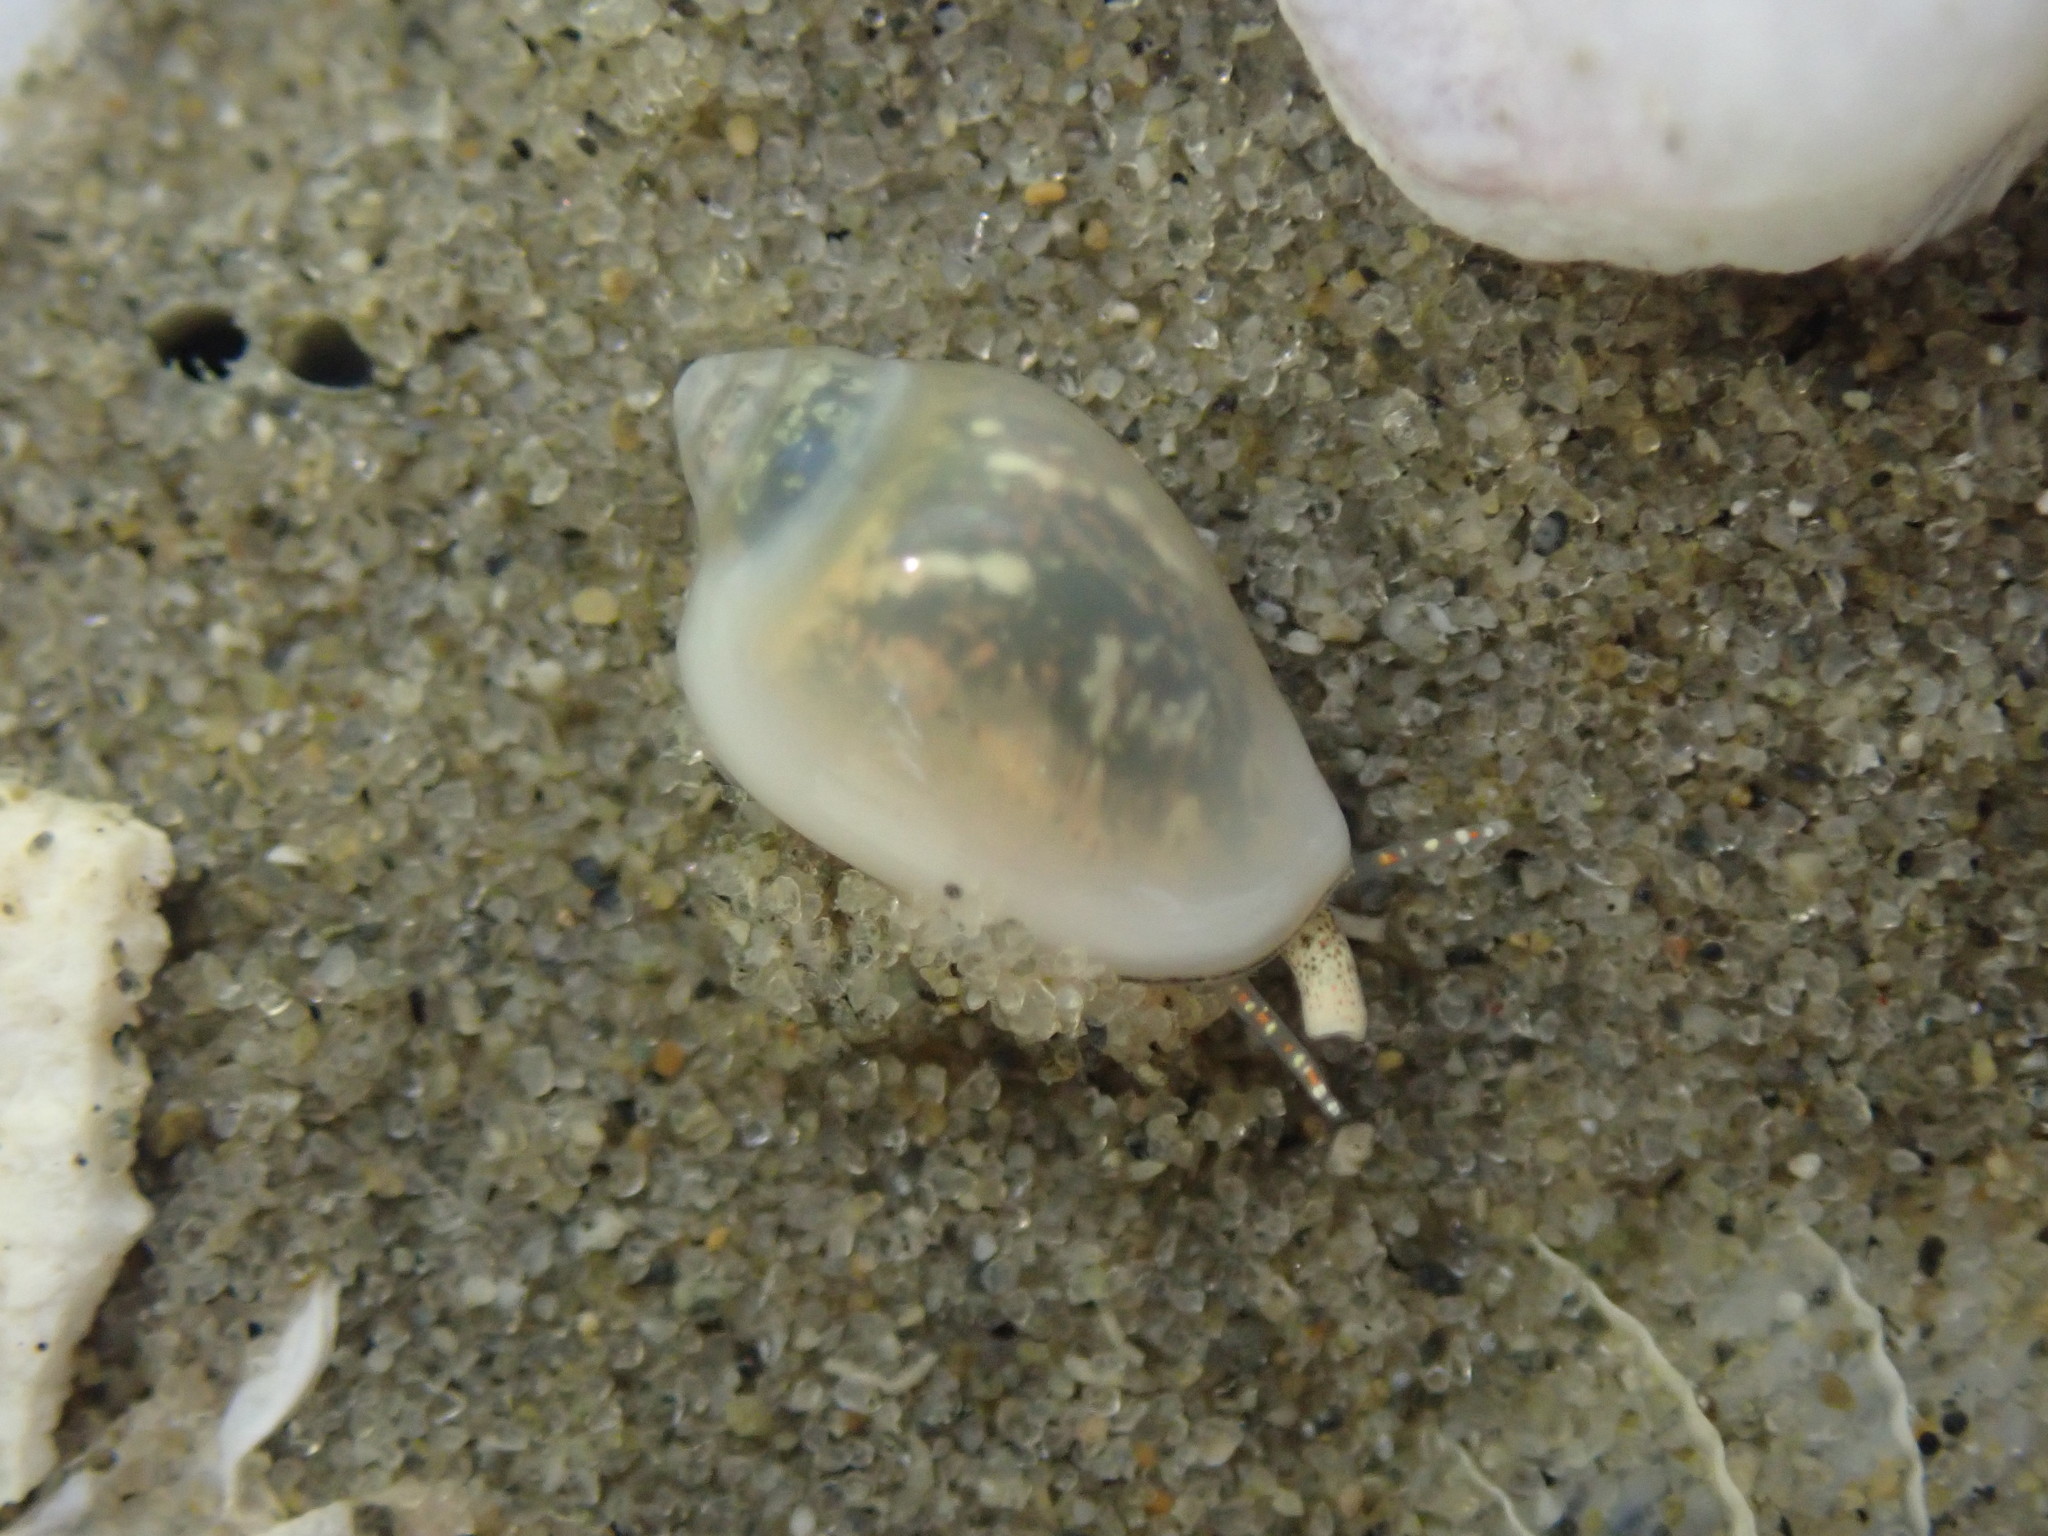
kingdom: Animalia
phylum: Mollusca
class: Gastropoda
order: Neogastropoda
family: Marginellidae
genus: Mesoginella
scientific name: Mesoginella
